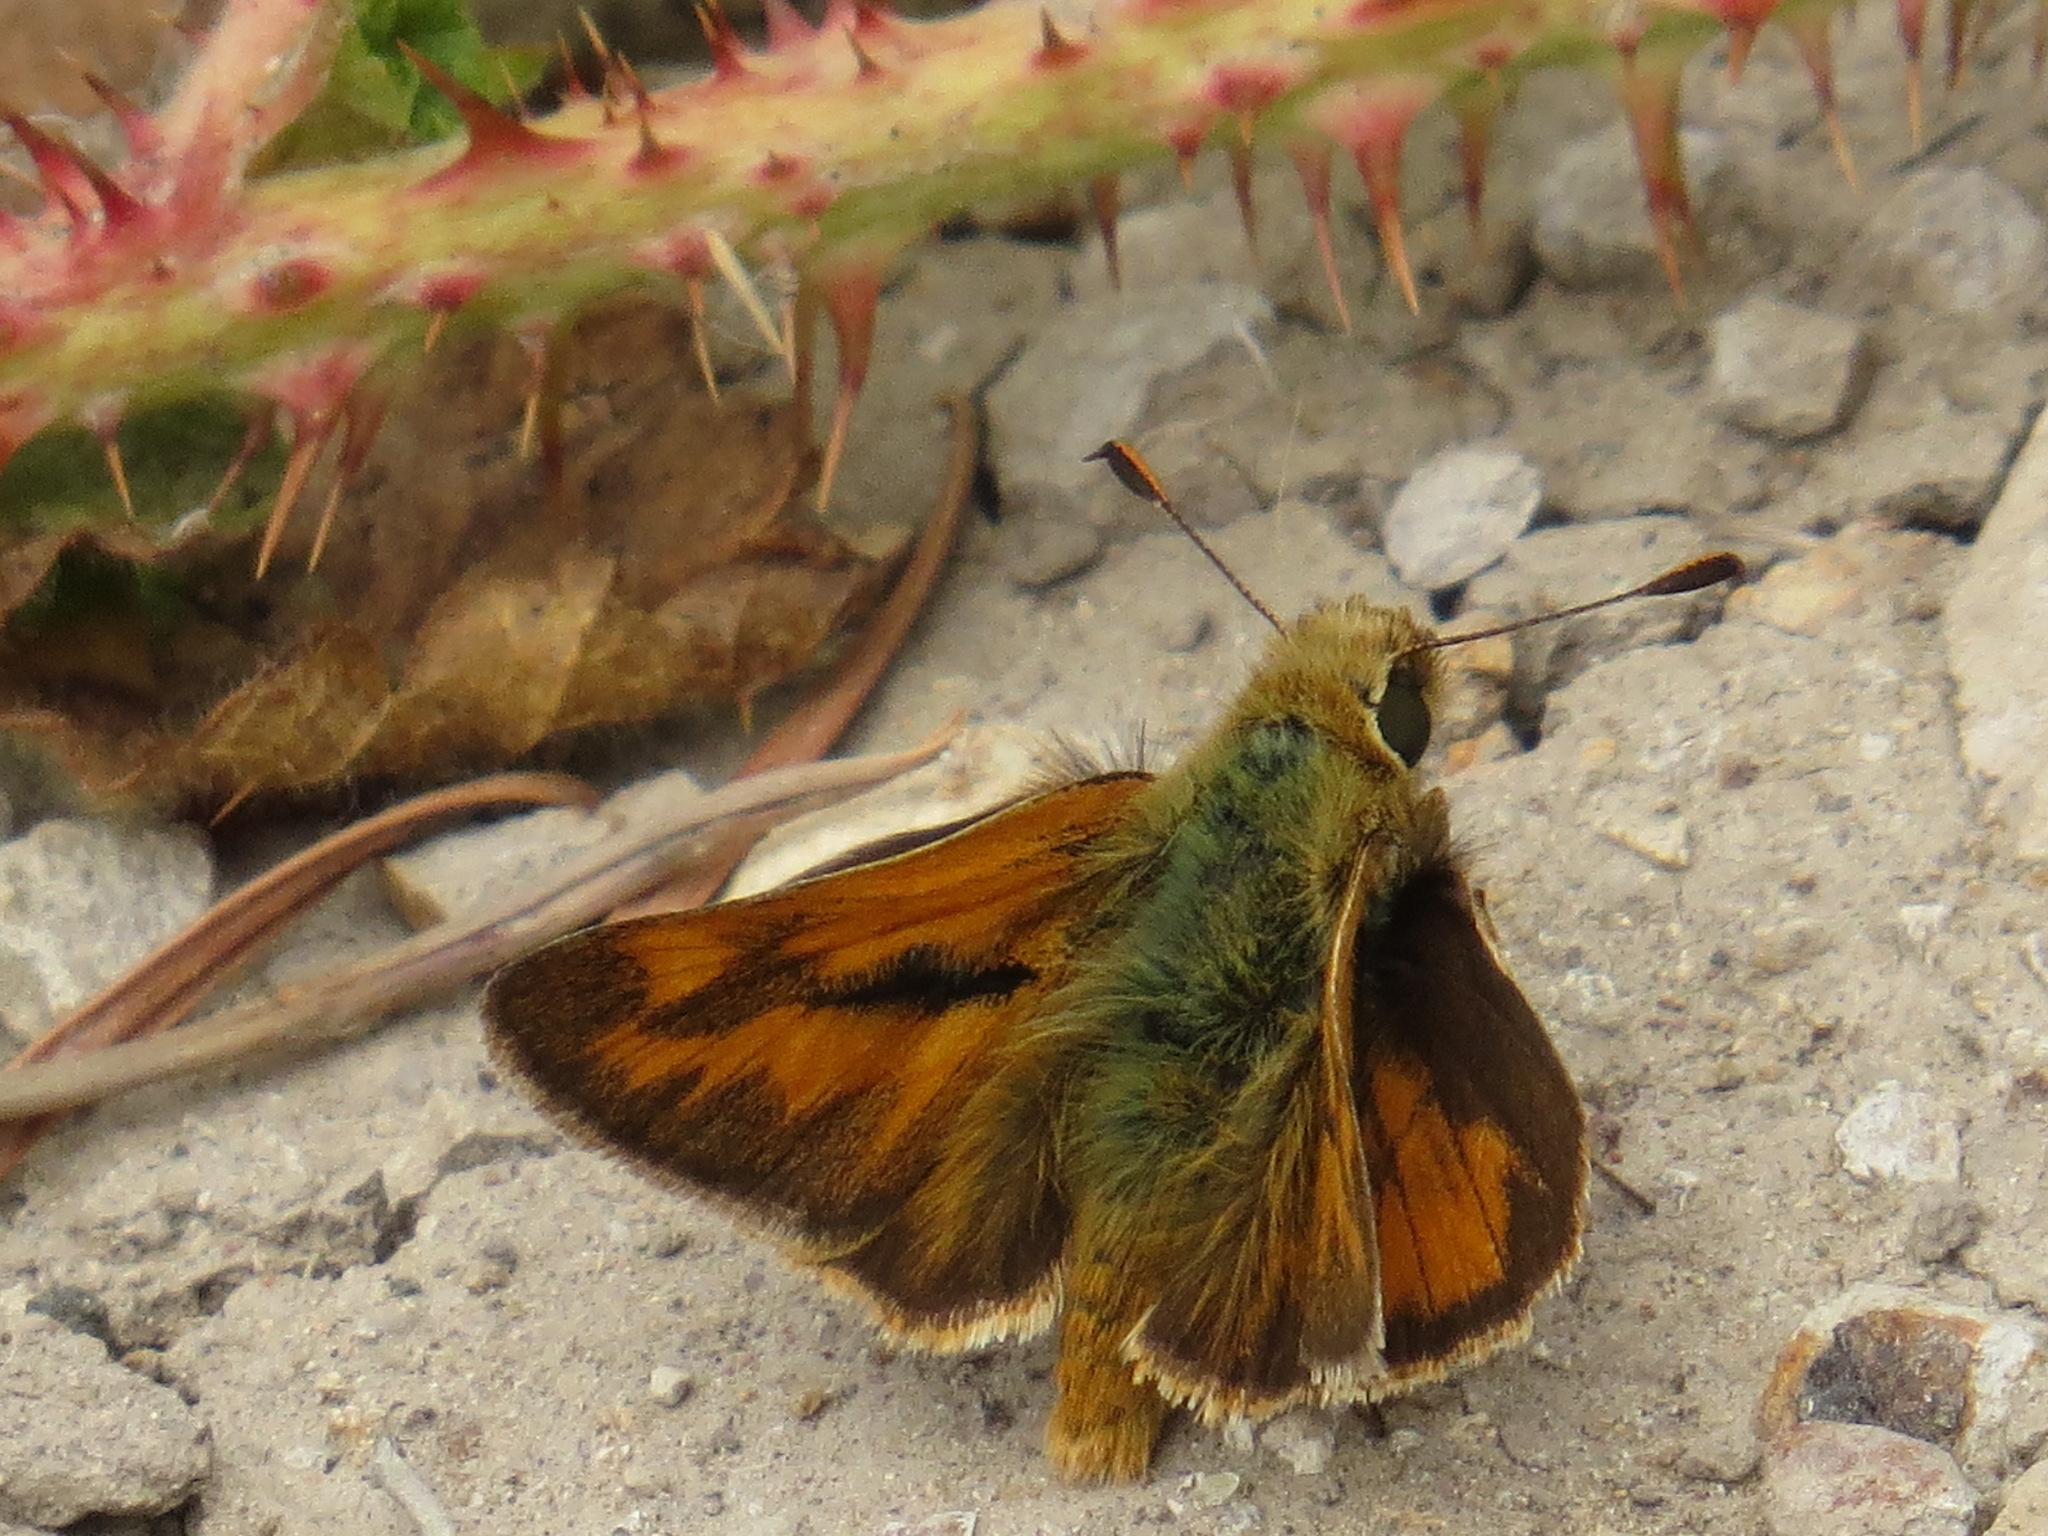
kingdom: Animalia
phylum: Arthropoda
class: Insecta
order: Lepidoptera
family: Hesperiidae
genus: Ochlodes
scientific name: Ochlodes sylvanoides
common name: Woodland skipper
